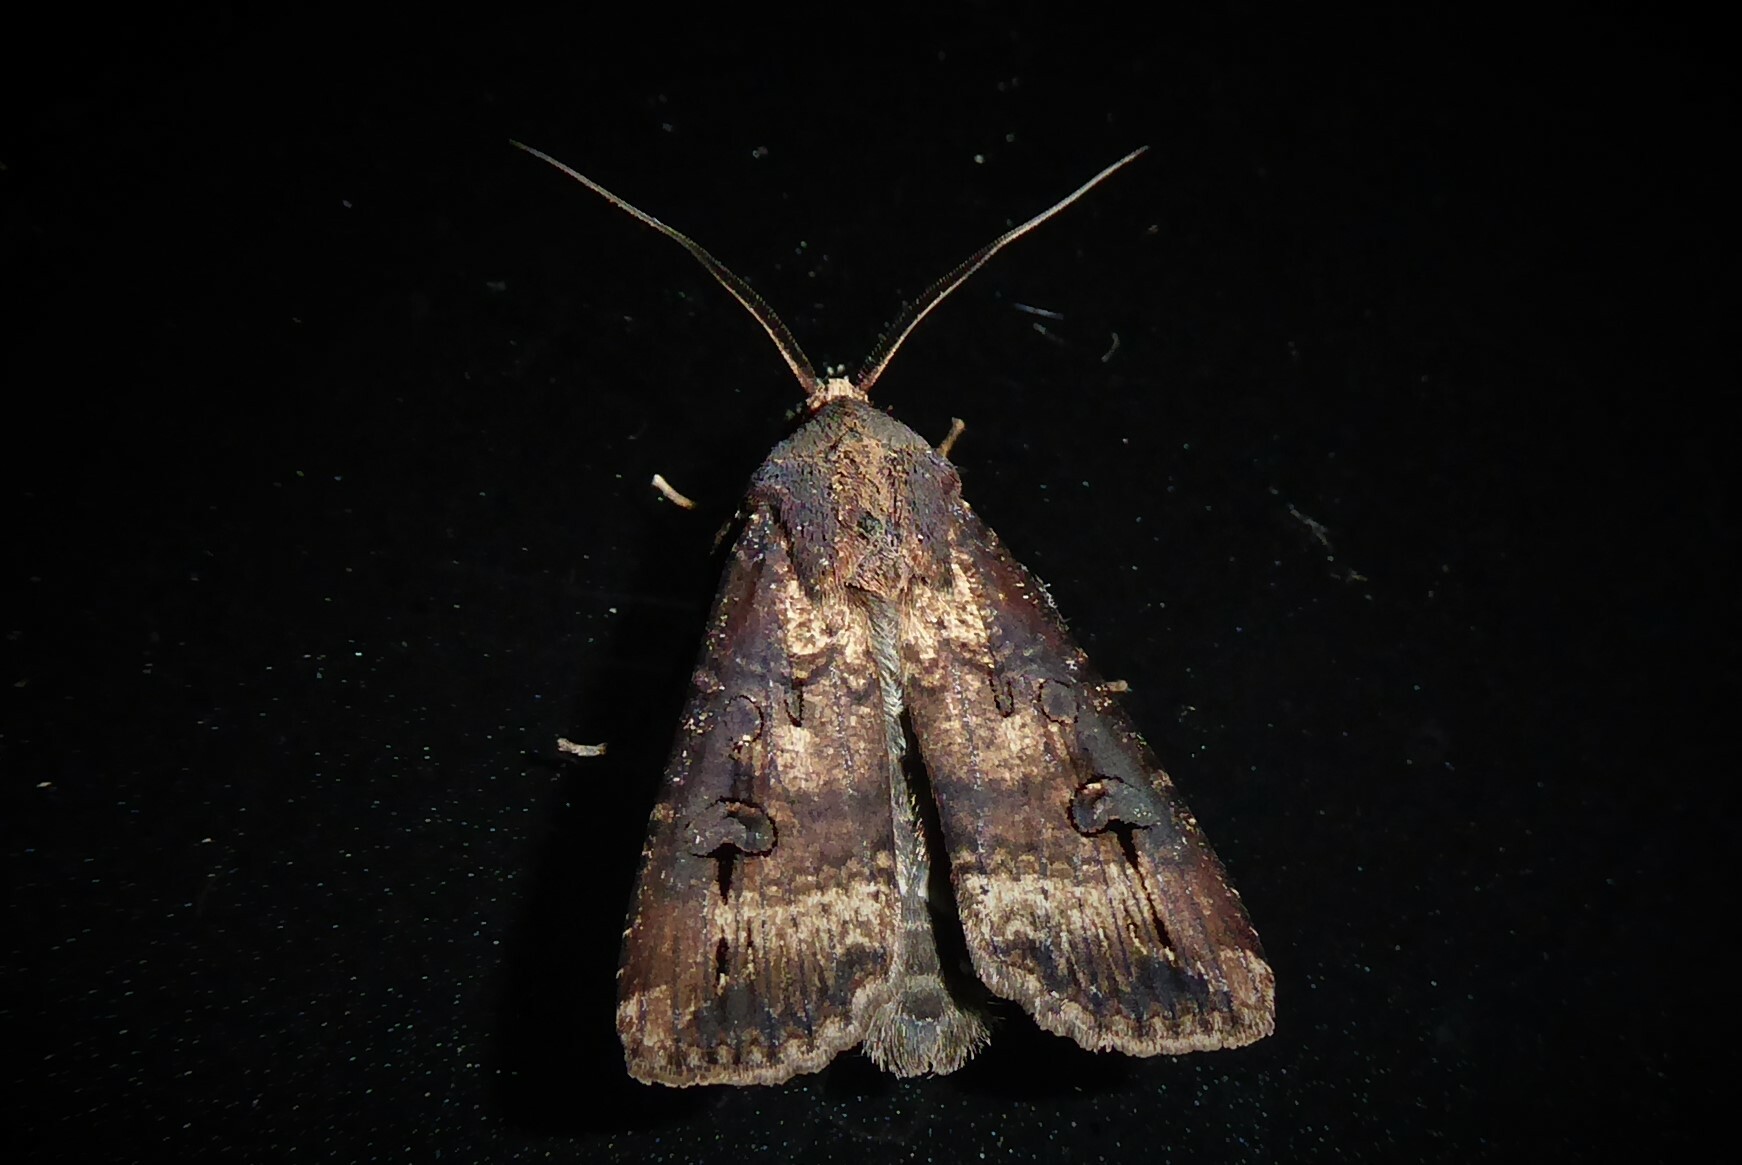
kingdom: Animalia
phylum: Arthropoda
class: Insecta
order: Lepidoptera
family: Noctuidae
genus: Agrotis
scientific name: Agrotis ipsilon
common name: Dark sword-grass
